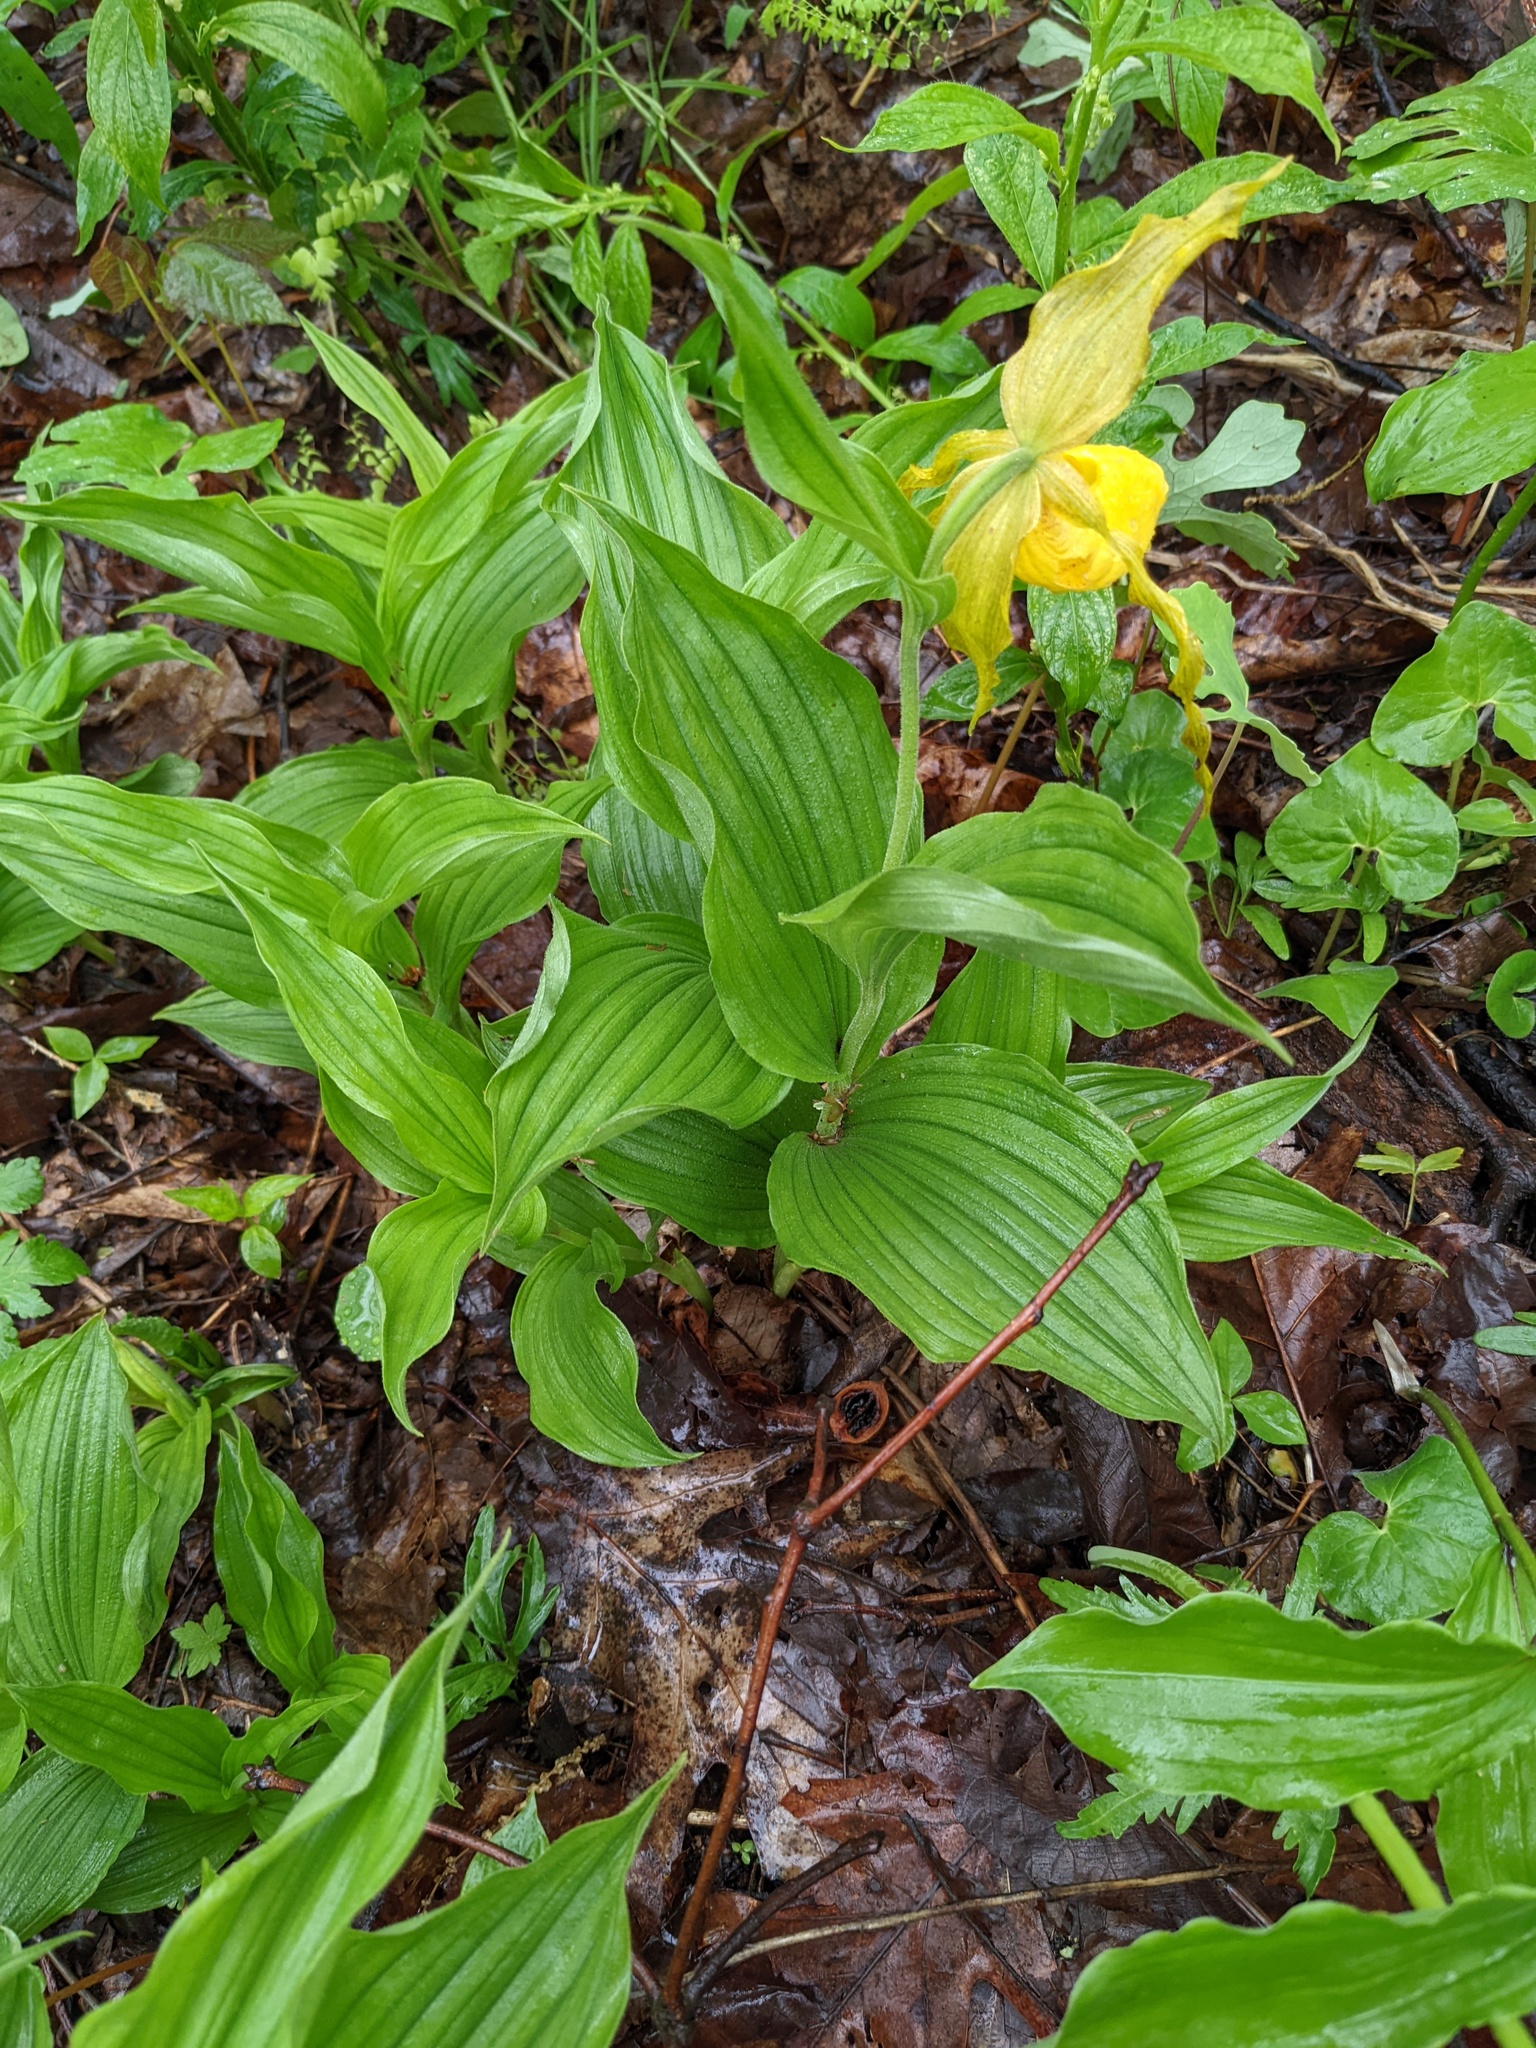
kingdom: Plantae
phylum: Tracheophyta
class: Liliopsida
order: Asparagales
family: Orchidaceae
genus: Cypripedium
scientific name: Cypripedium parviflorum
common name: American yellow lady's-slipper
